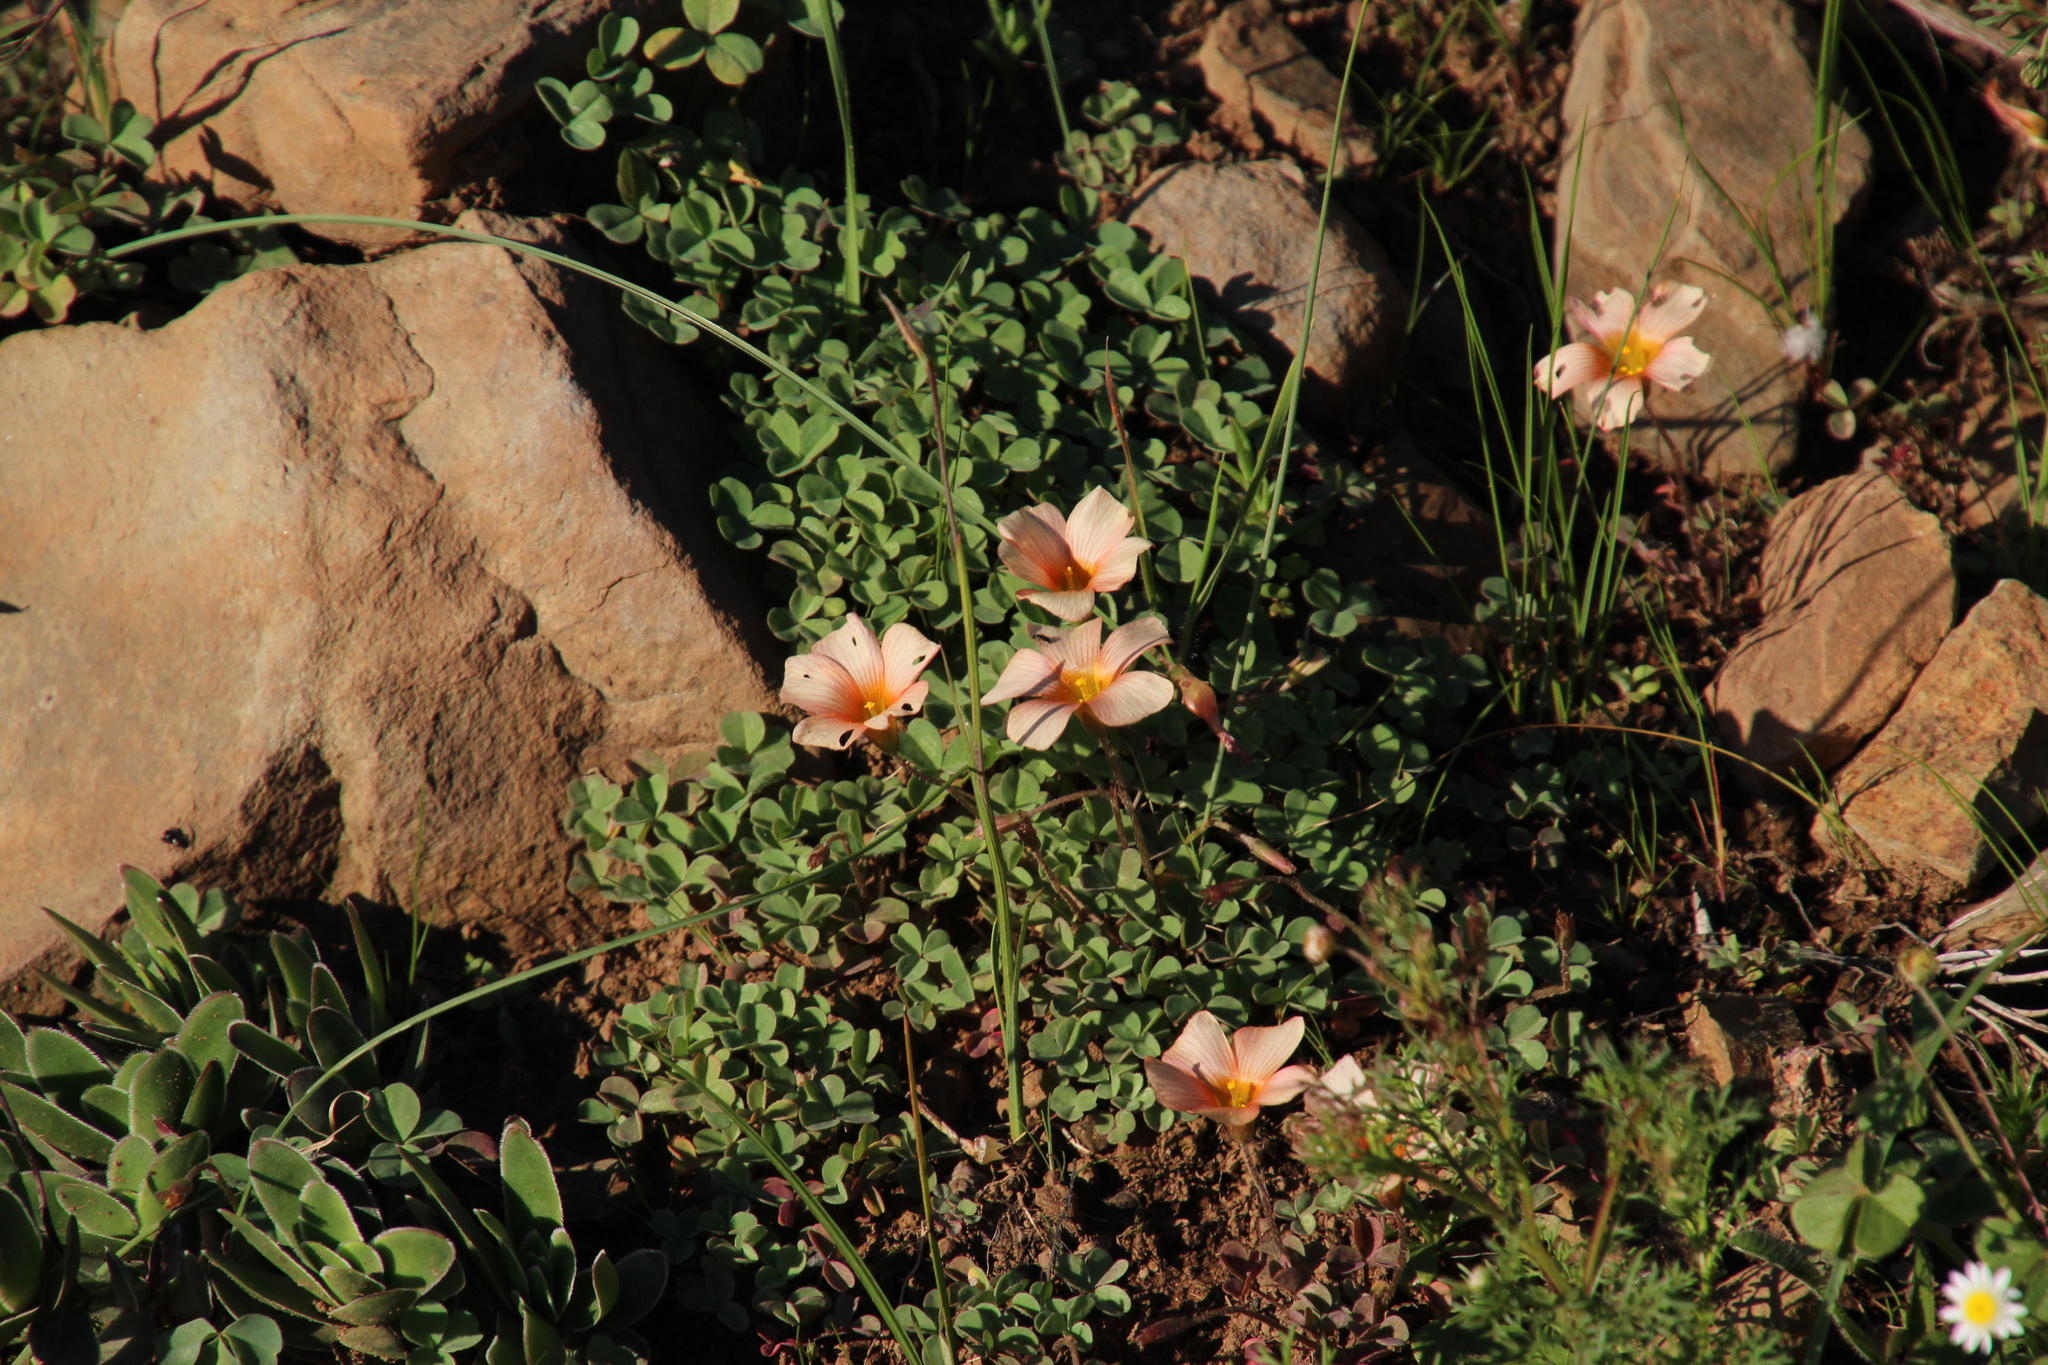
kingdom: Plantae
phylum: Tracheophyta
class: Magnoliopsida
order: Oxalidales
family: Oxalidaceae
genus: Oxalis
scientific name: Oxalis obtusa
